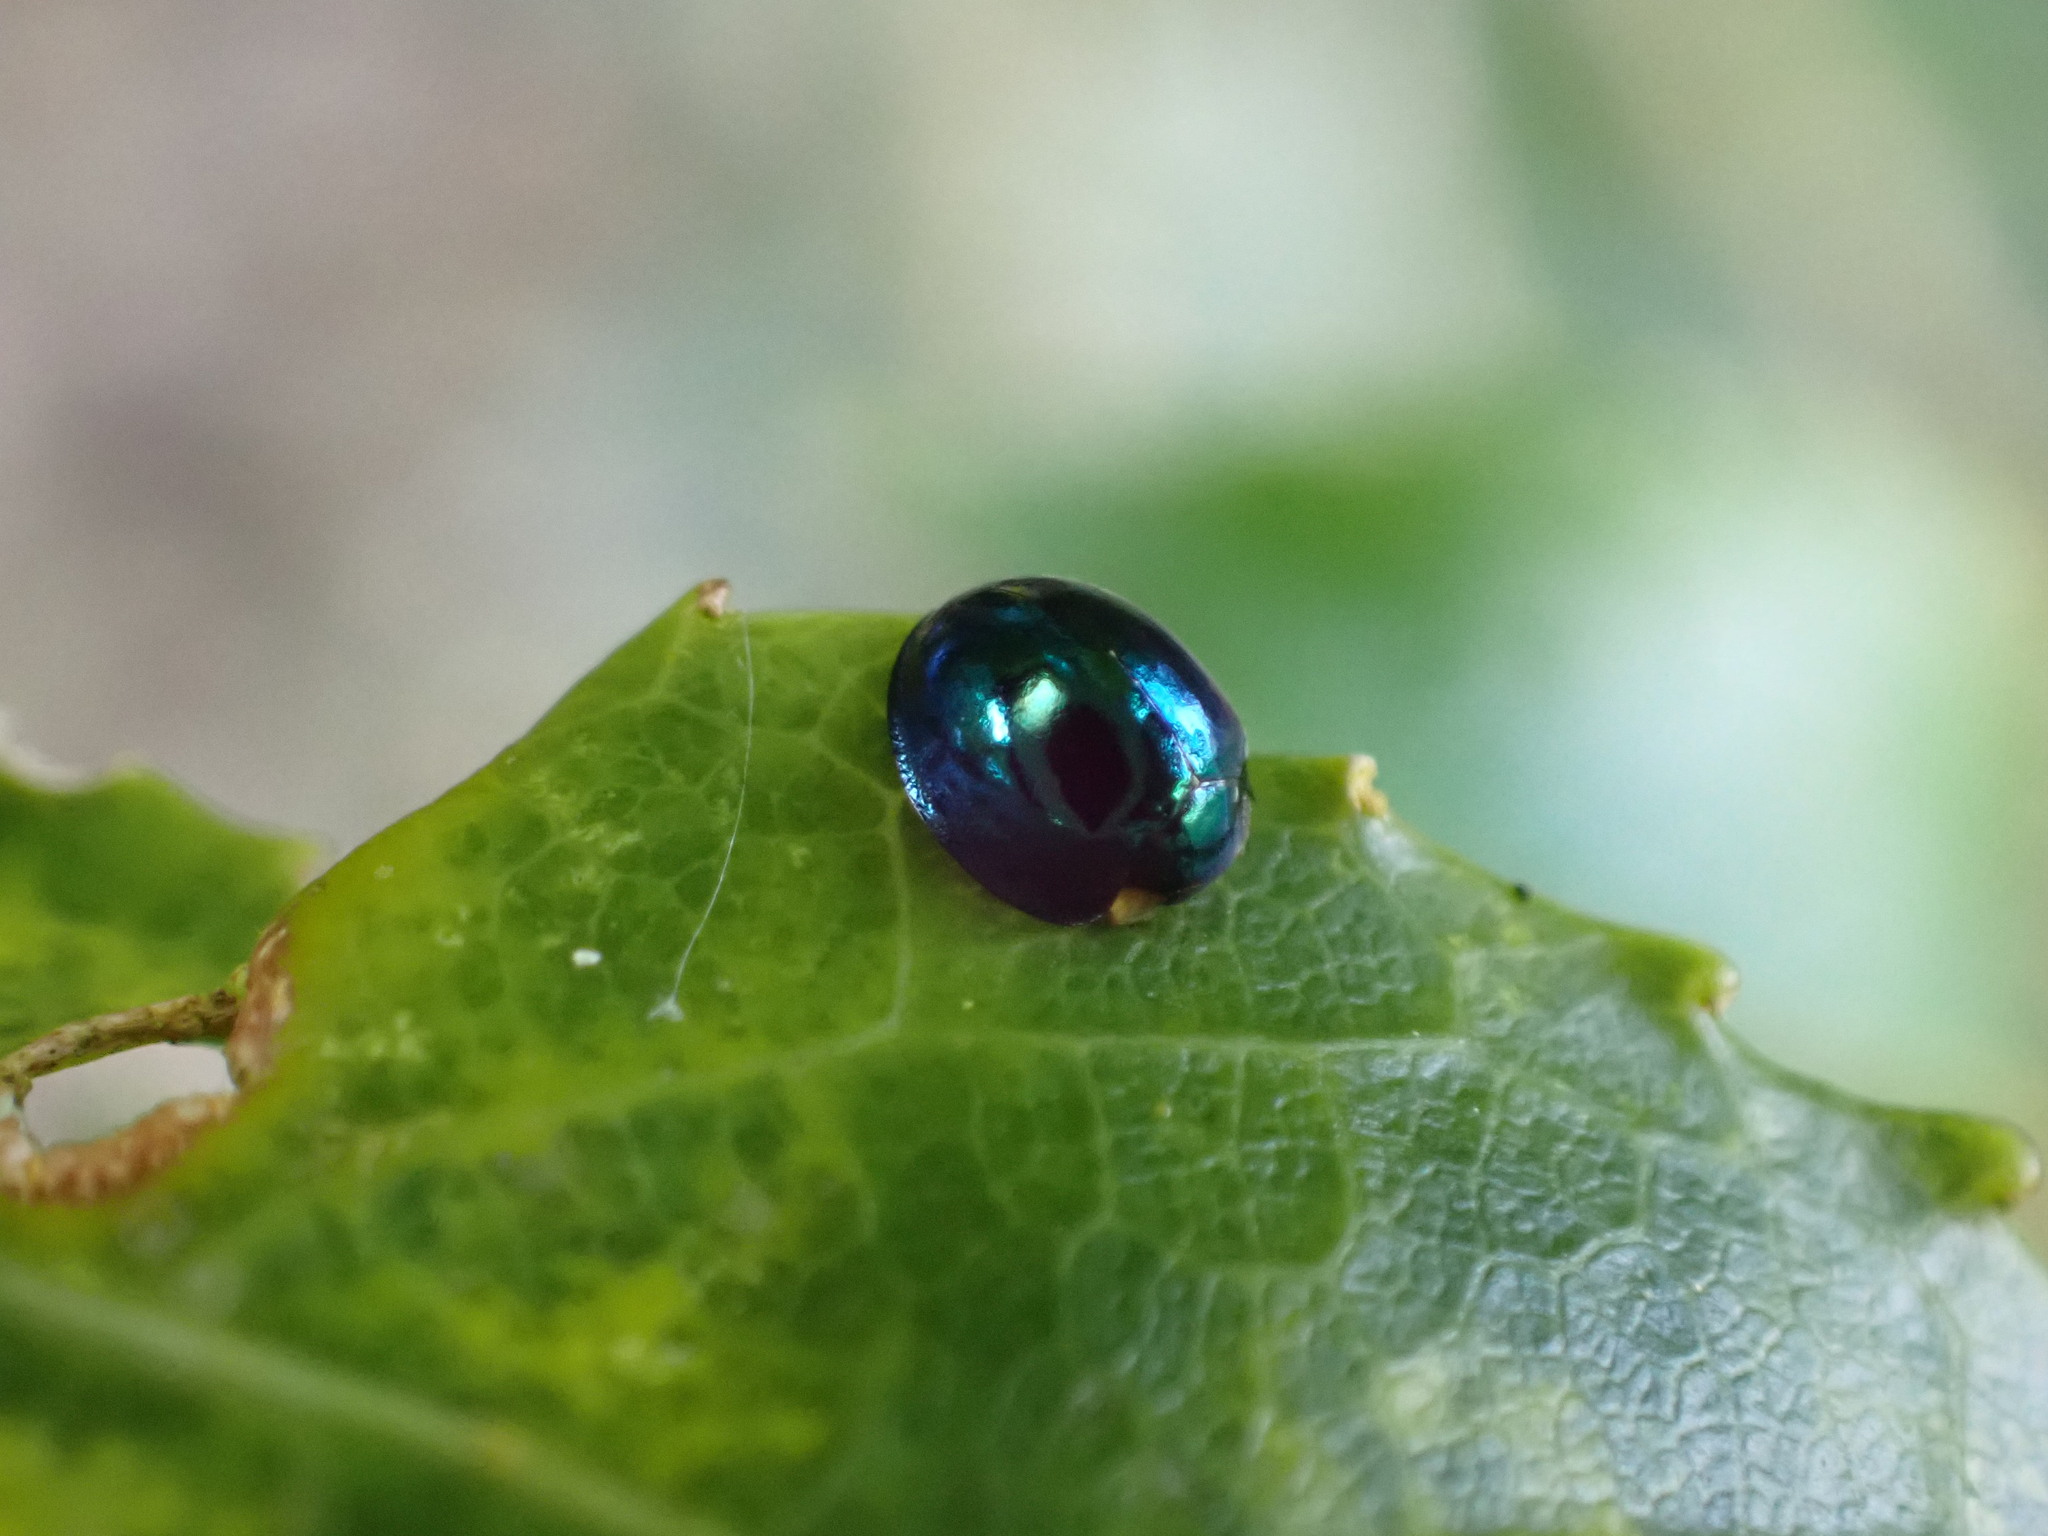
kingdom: Animalia
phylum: Arthropoda
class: Insecta
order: Coleoptera
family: Coccinellidae
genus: Halmus
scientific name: Halmus chalybeus
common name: Steel blue ladybird beetle
